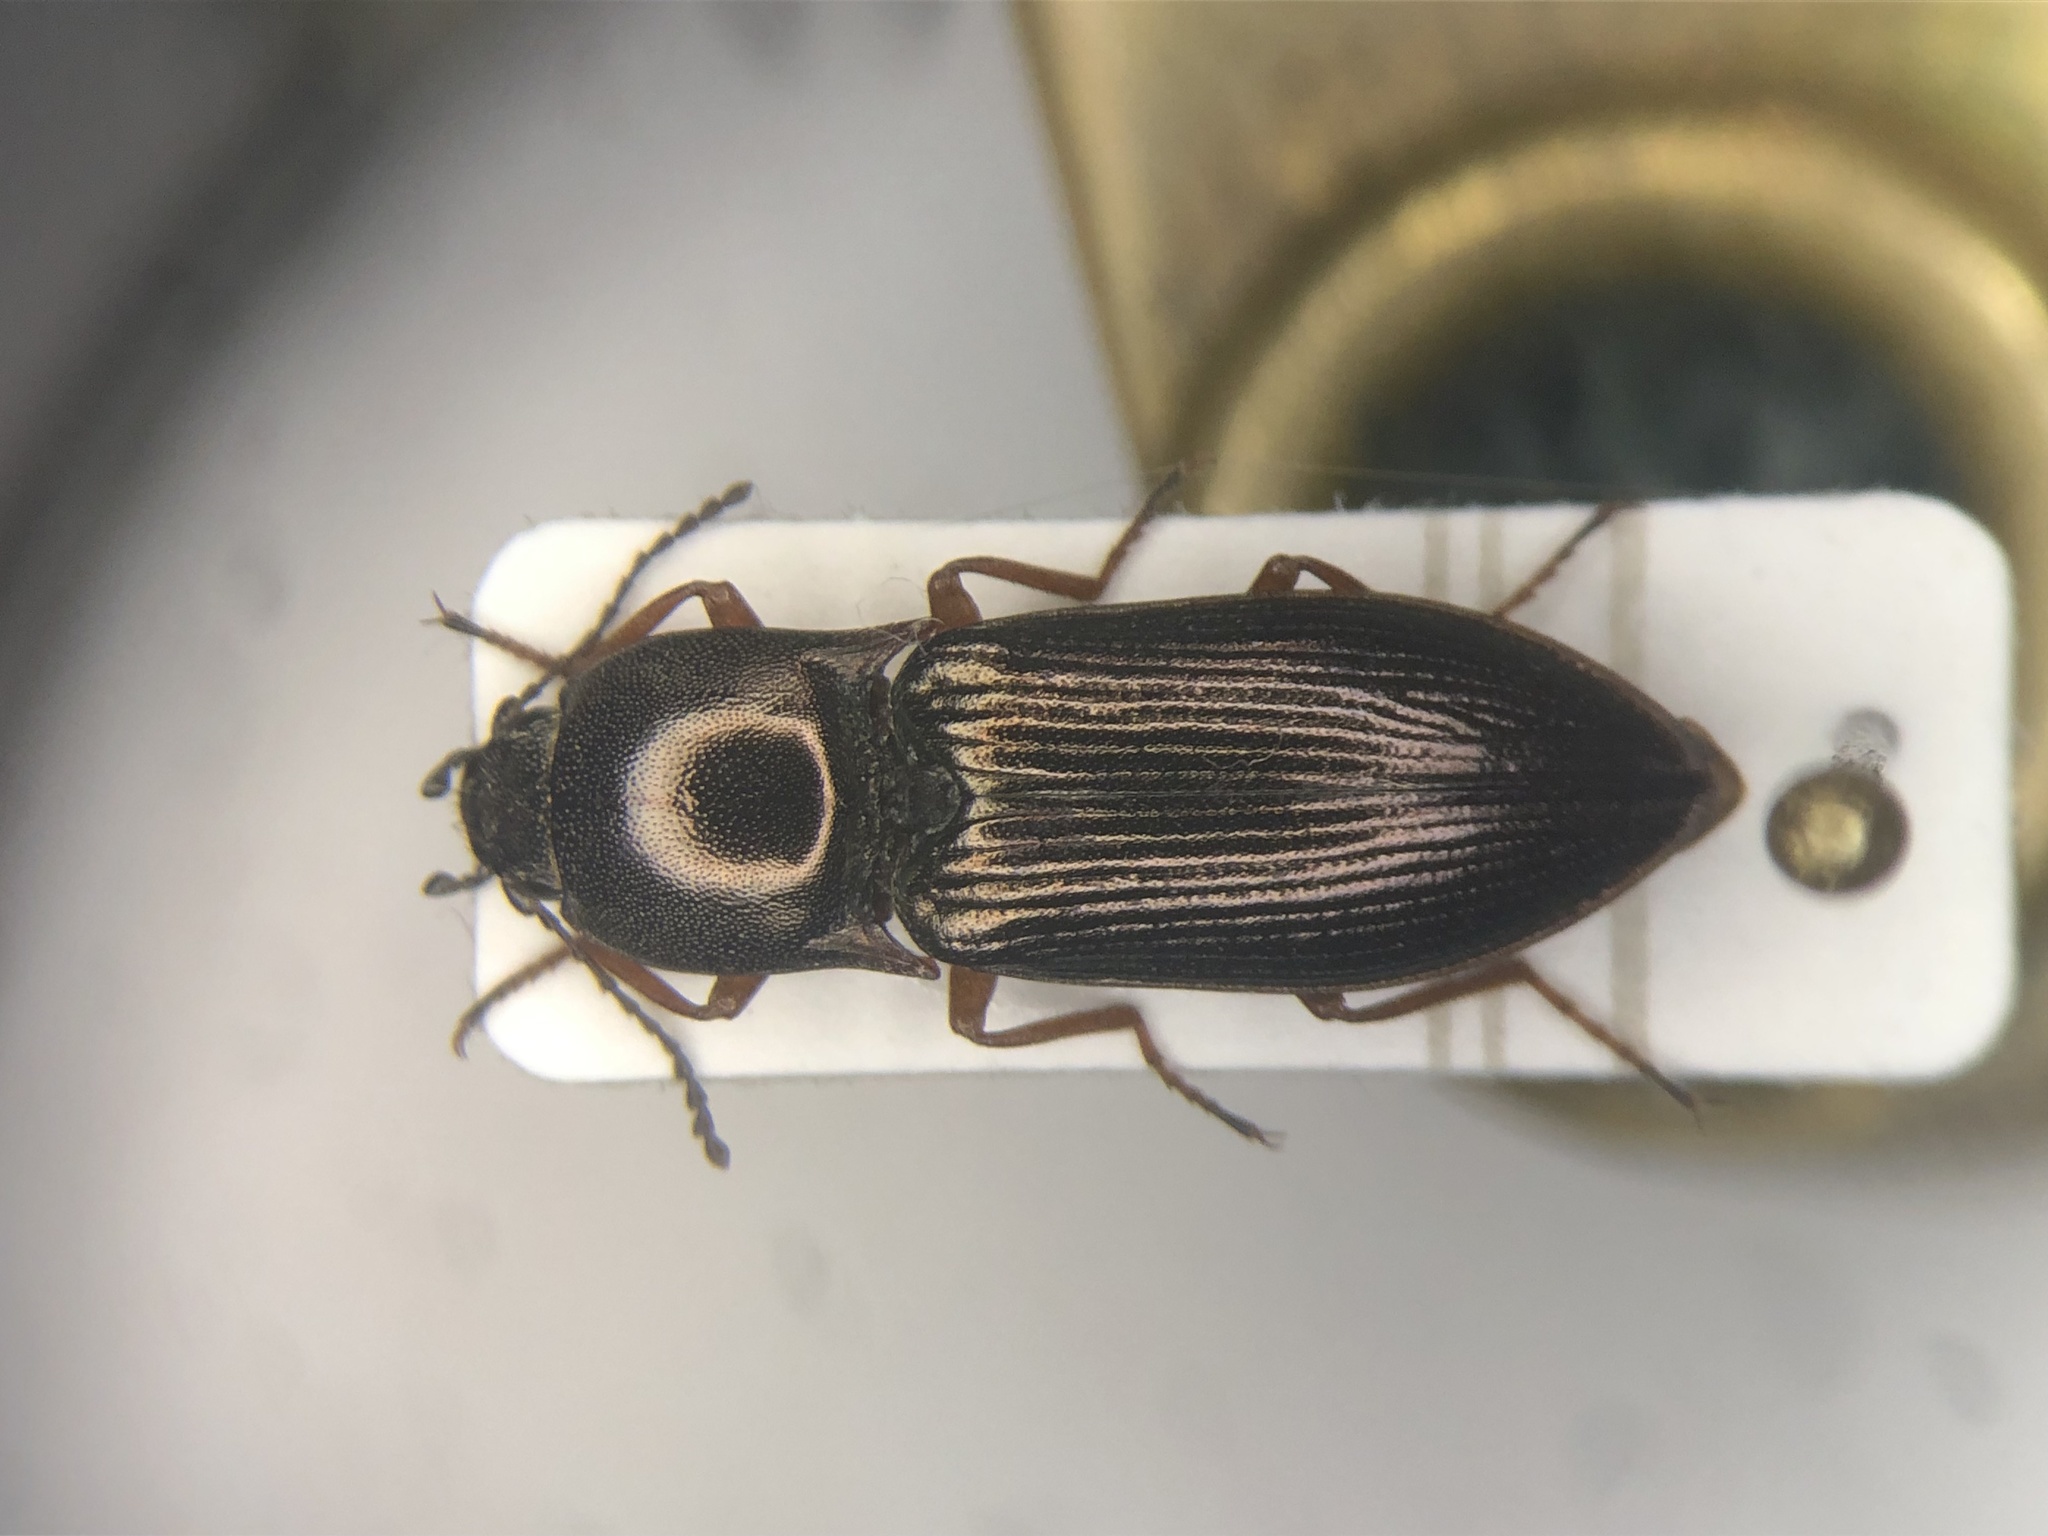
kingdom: Animalia
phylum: Arthropoda
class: Insecta
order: Coleoptera
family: Elateridae
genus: Selatosomus
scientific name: Selatosomus splendens
